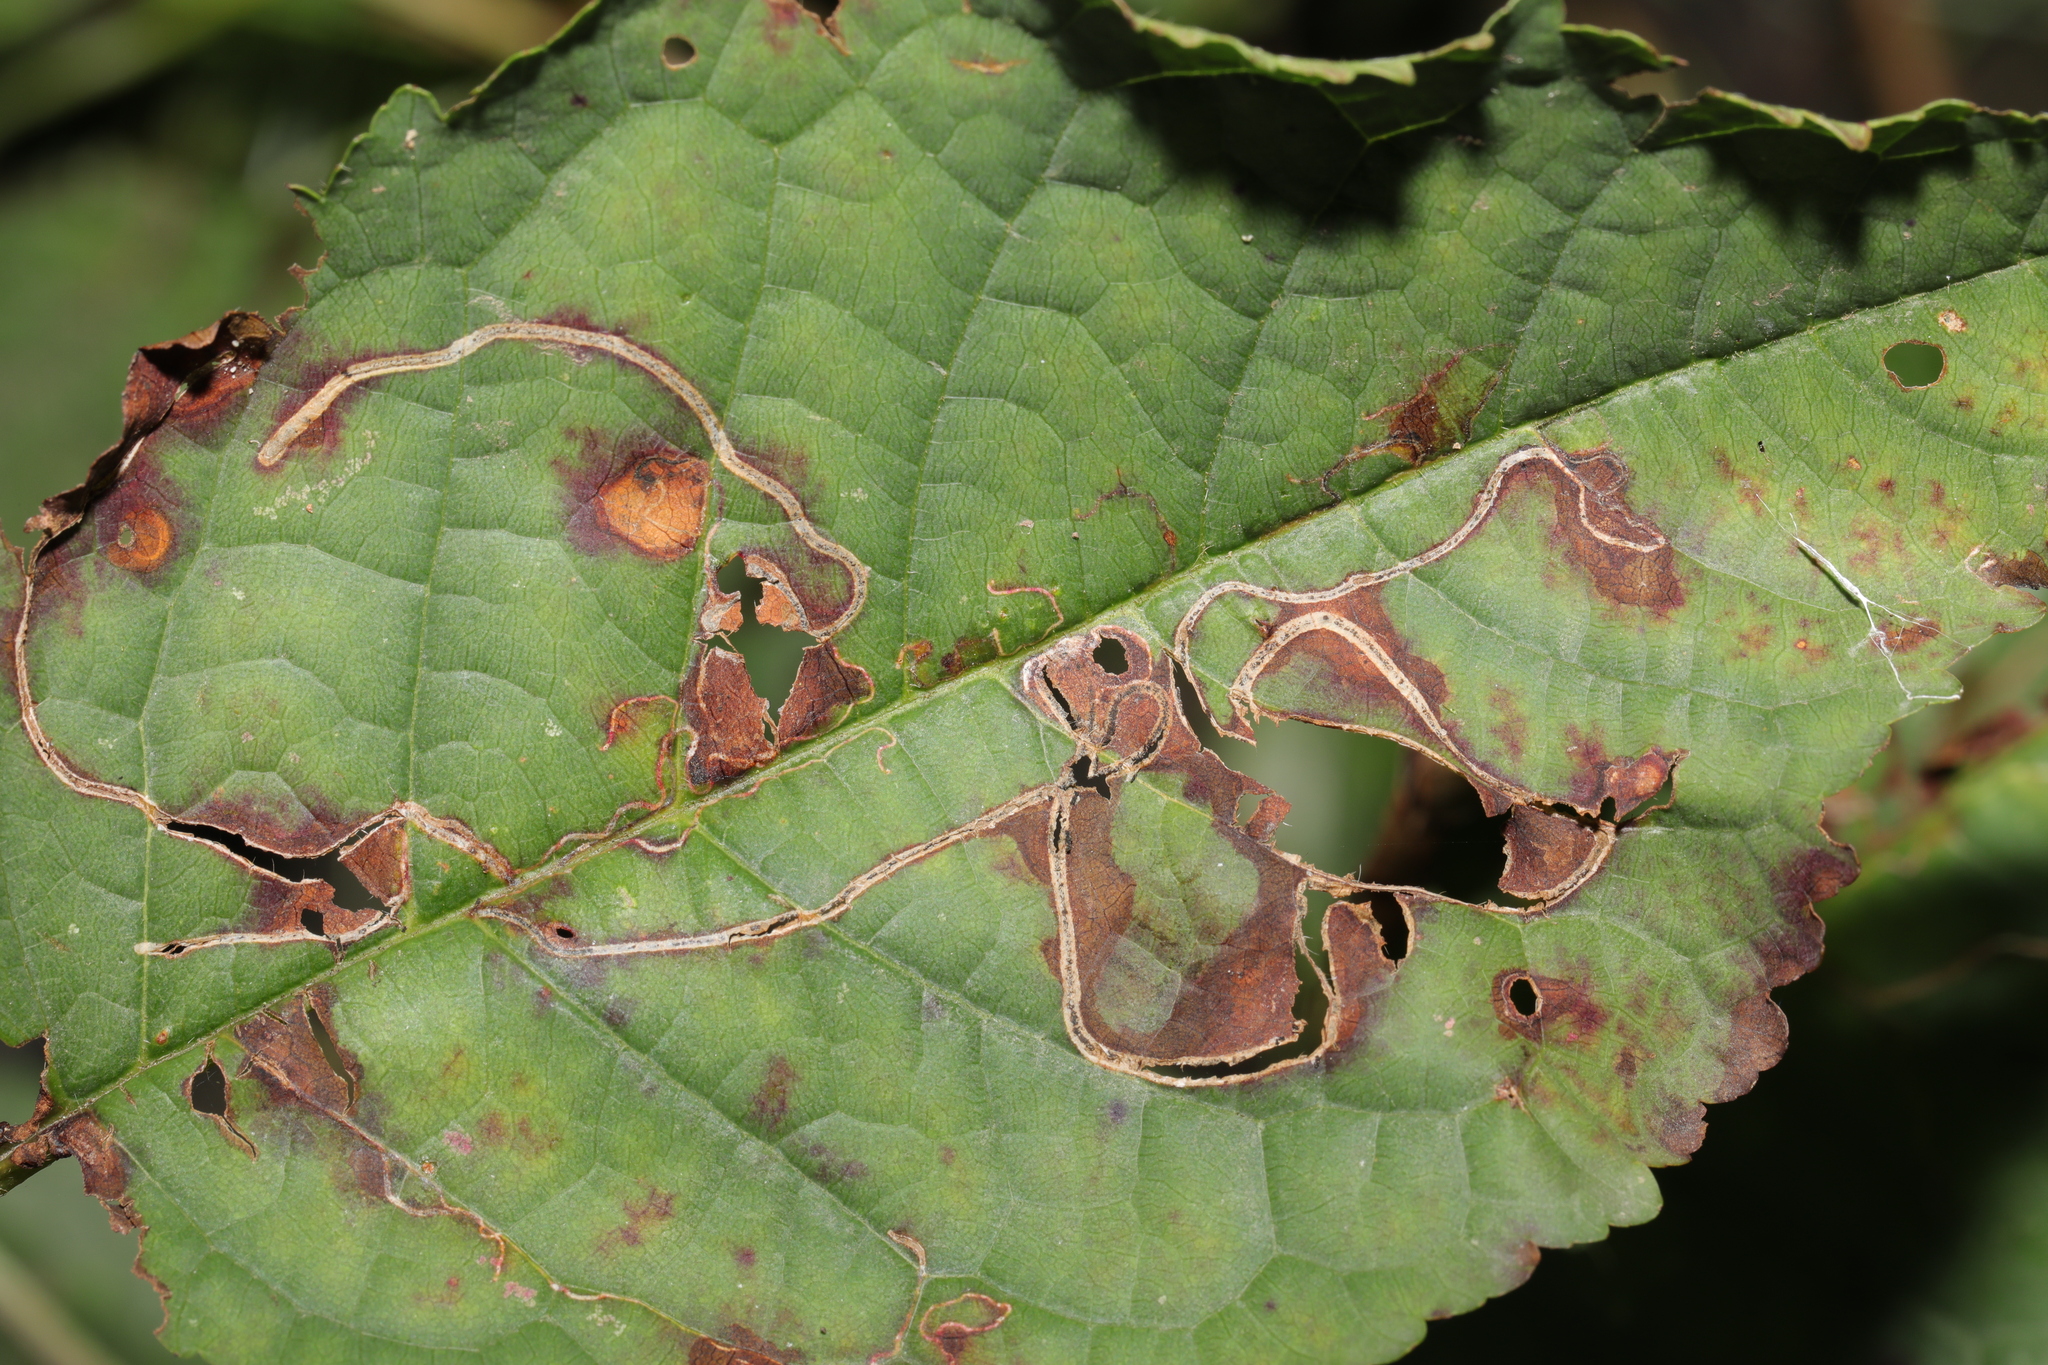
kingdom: Animalia
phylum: Arthropoda
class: Insecta
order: Lepidoptera
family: Lyonetiidae
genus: Lyonetia
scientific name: Lyonetia clerkella
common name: Apple leaf miner
